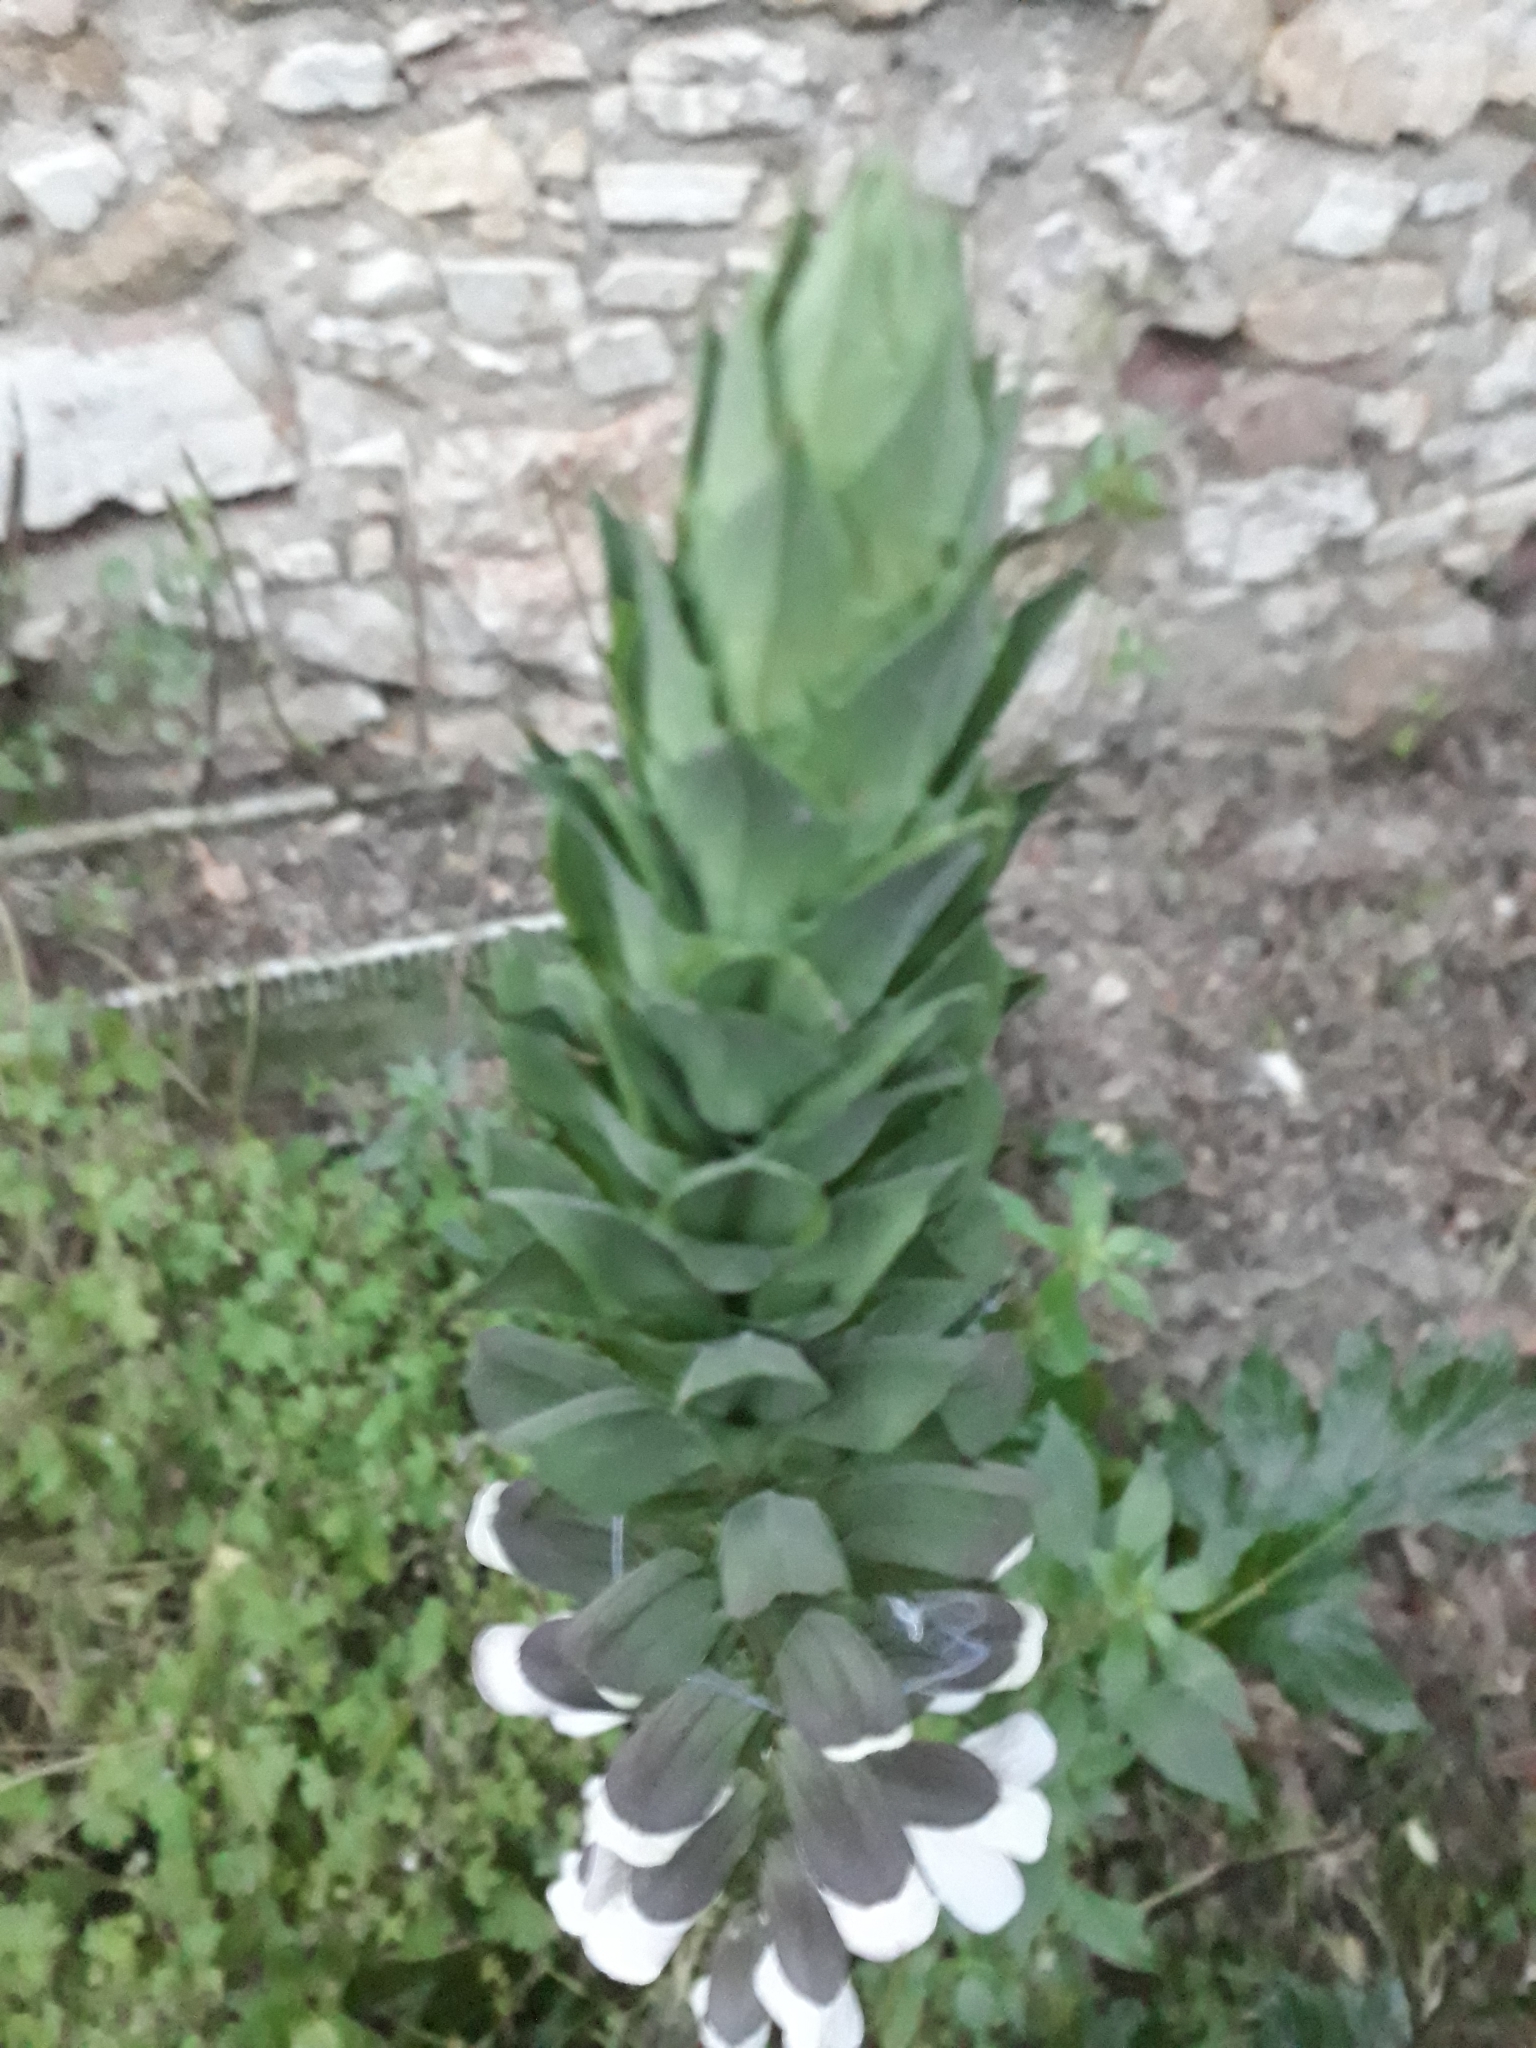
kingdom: Plantae
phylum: Tracheophyta
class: Magnoliopsida
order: Lamiales
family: Acanthaceae
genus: Acanthus
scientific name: Acanthus mollis
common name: Bear's-breech
